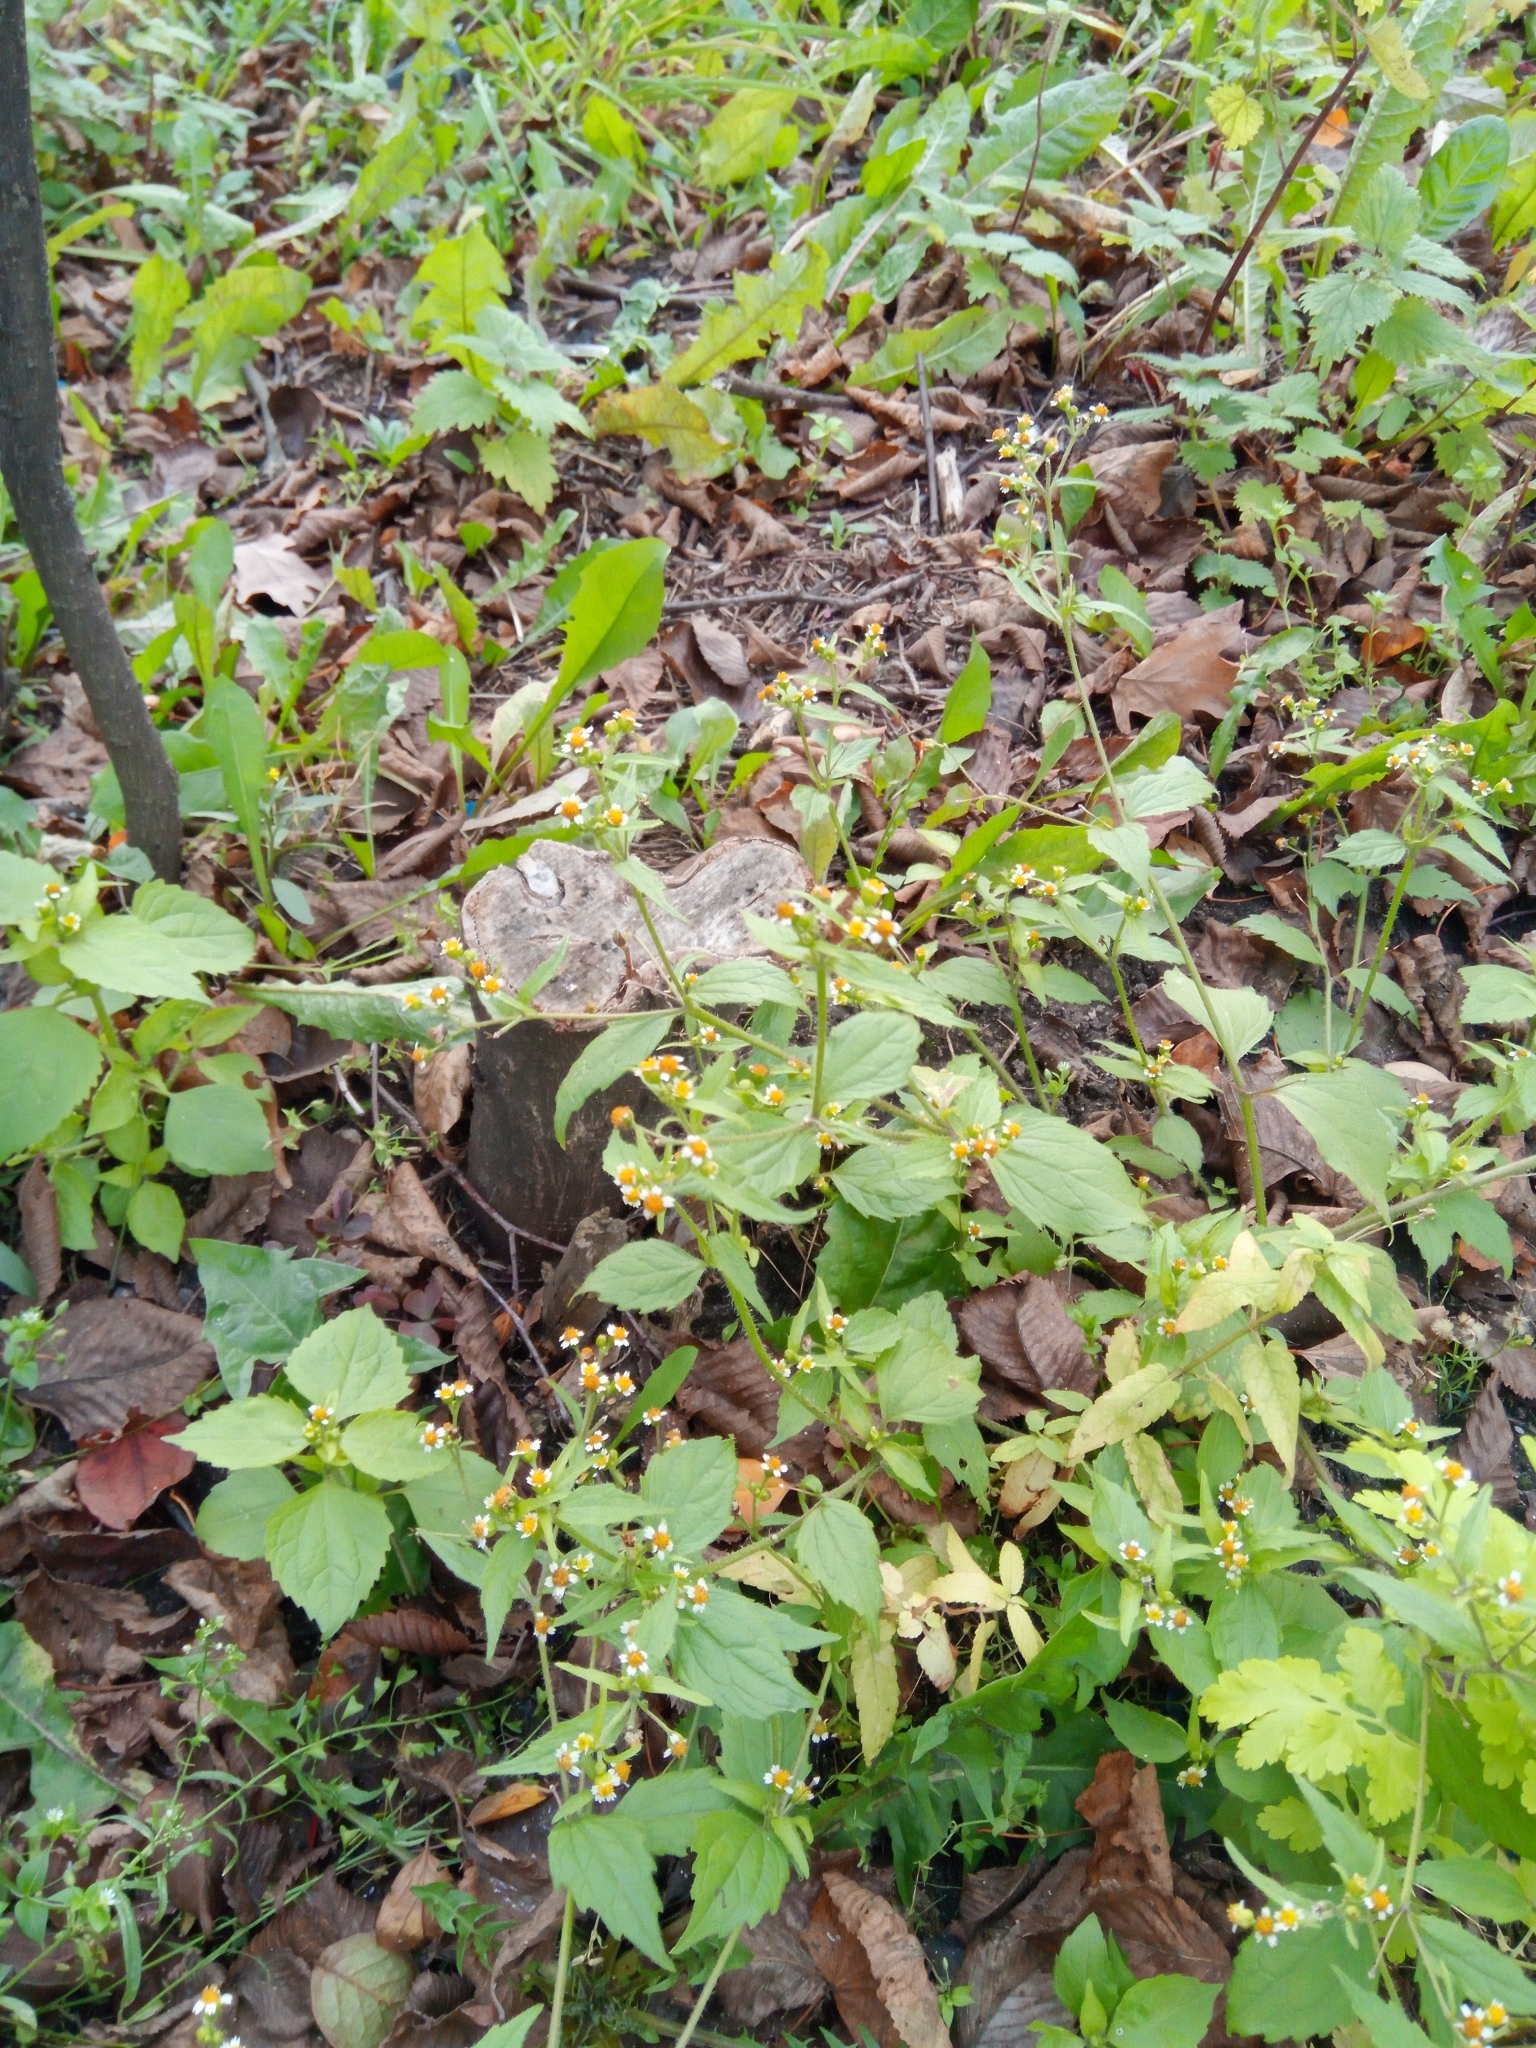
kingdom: Plantae
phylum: Tracheophyta
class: Magnoliopsida
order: Asterales
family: Asteraceae
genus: Galinsoga
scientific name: Galinsoga quadriradiata
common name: Shaggy soldier
